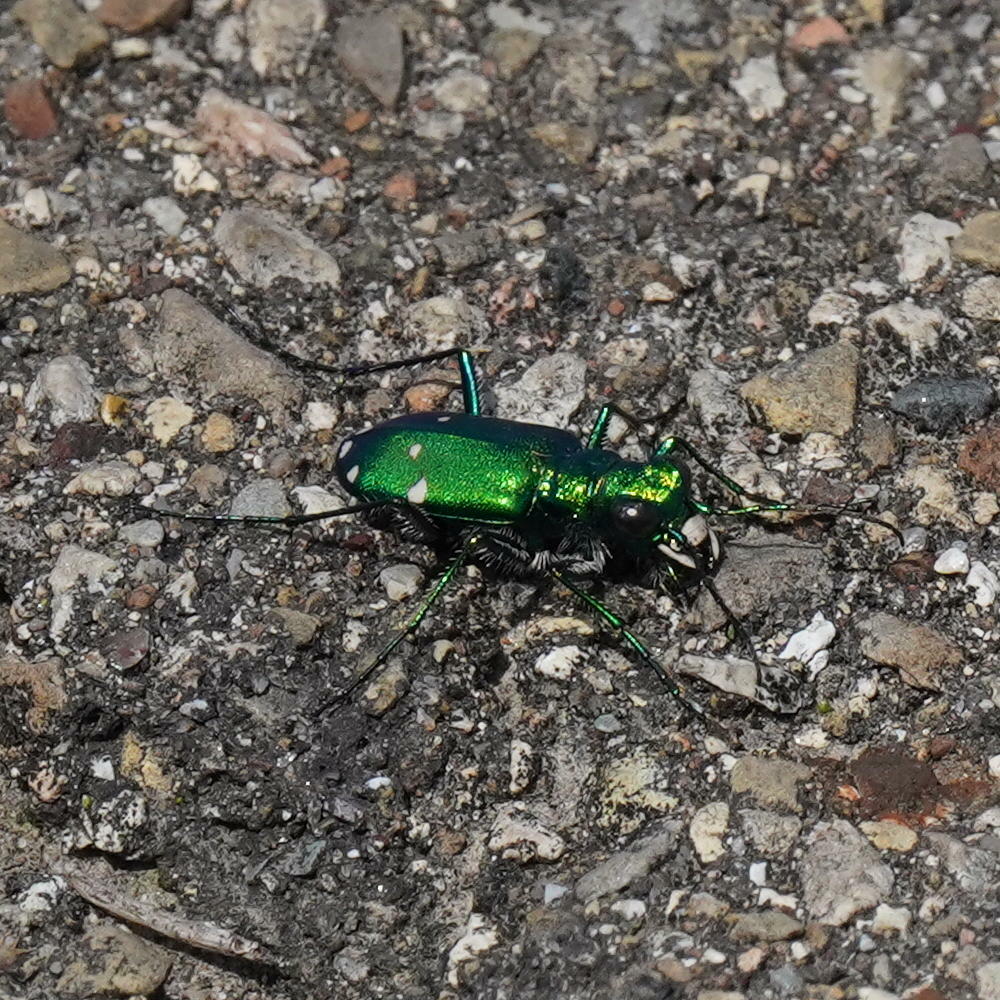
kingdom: Animalia
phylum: Arthropoda
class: Insecta
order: Coleoptera
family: Carabidae
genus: Cicindela
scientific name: Cicindela sexguttata
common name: Six-spotted tiger beetle
